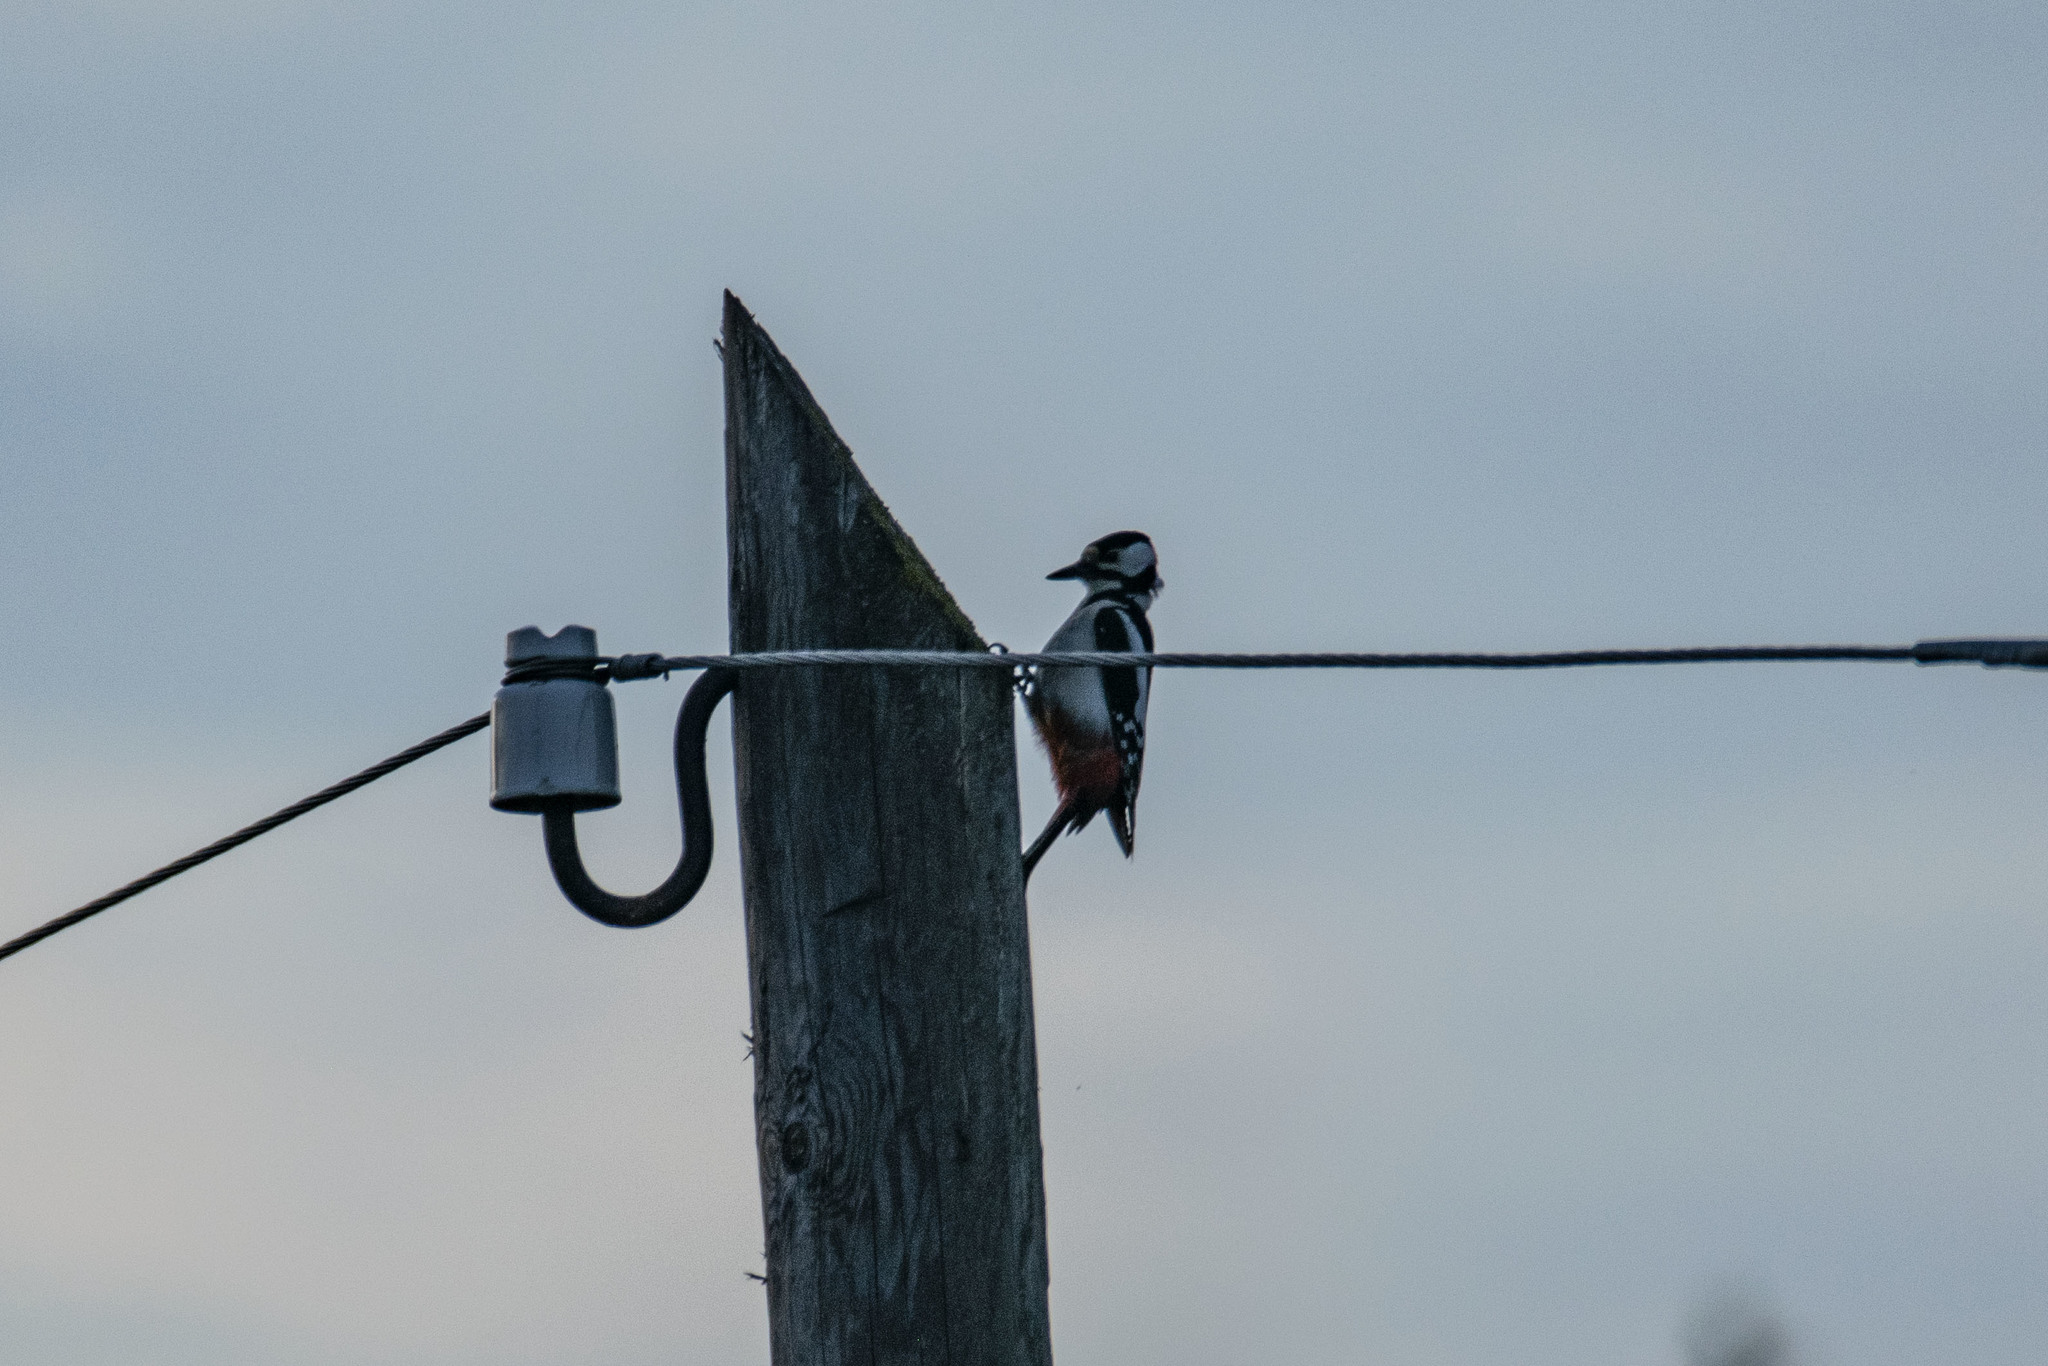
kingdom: Animalia
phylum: Chordata
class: Aves
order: Piciformes
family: Picidae
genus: Dendrocopos
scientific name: Dendrocopos major
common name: Great spotted woodpecker
